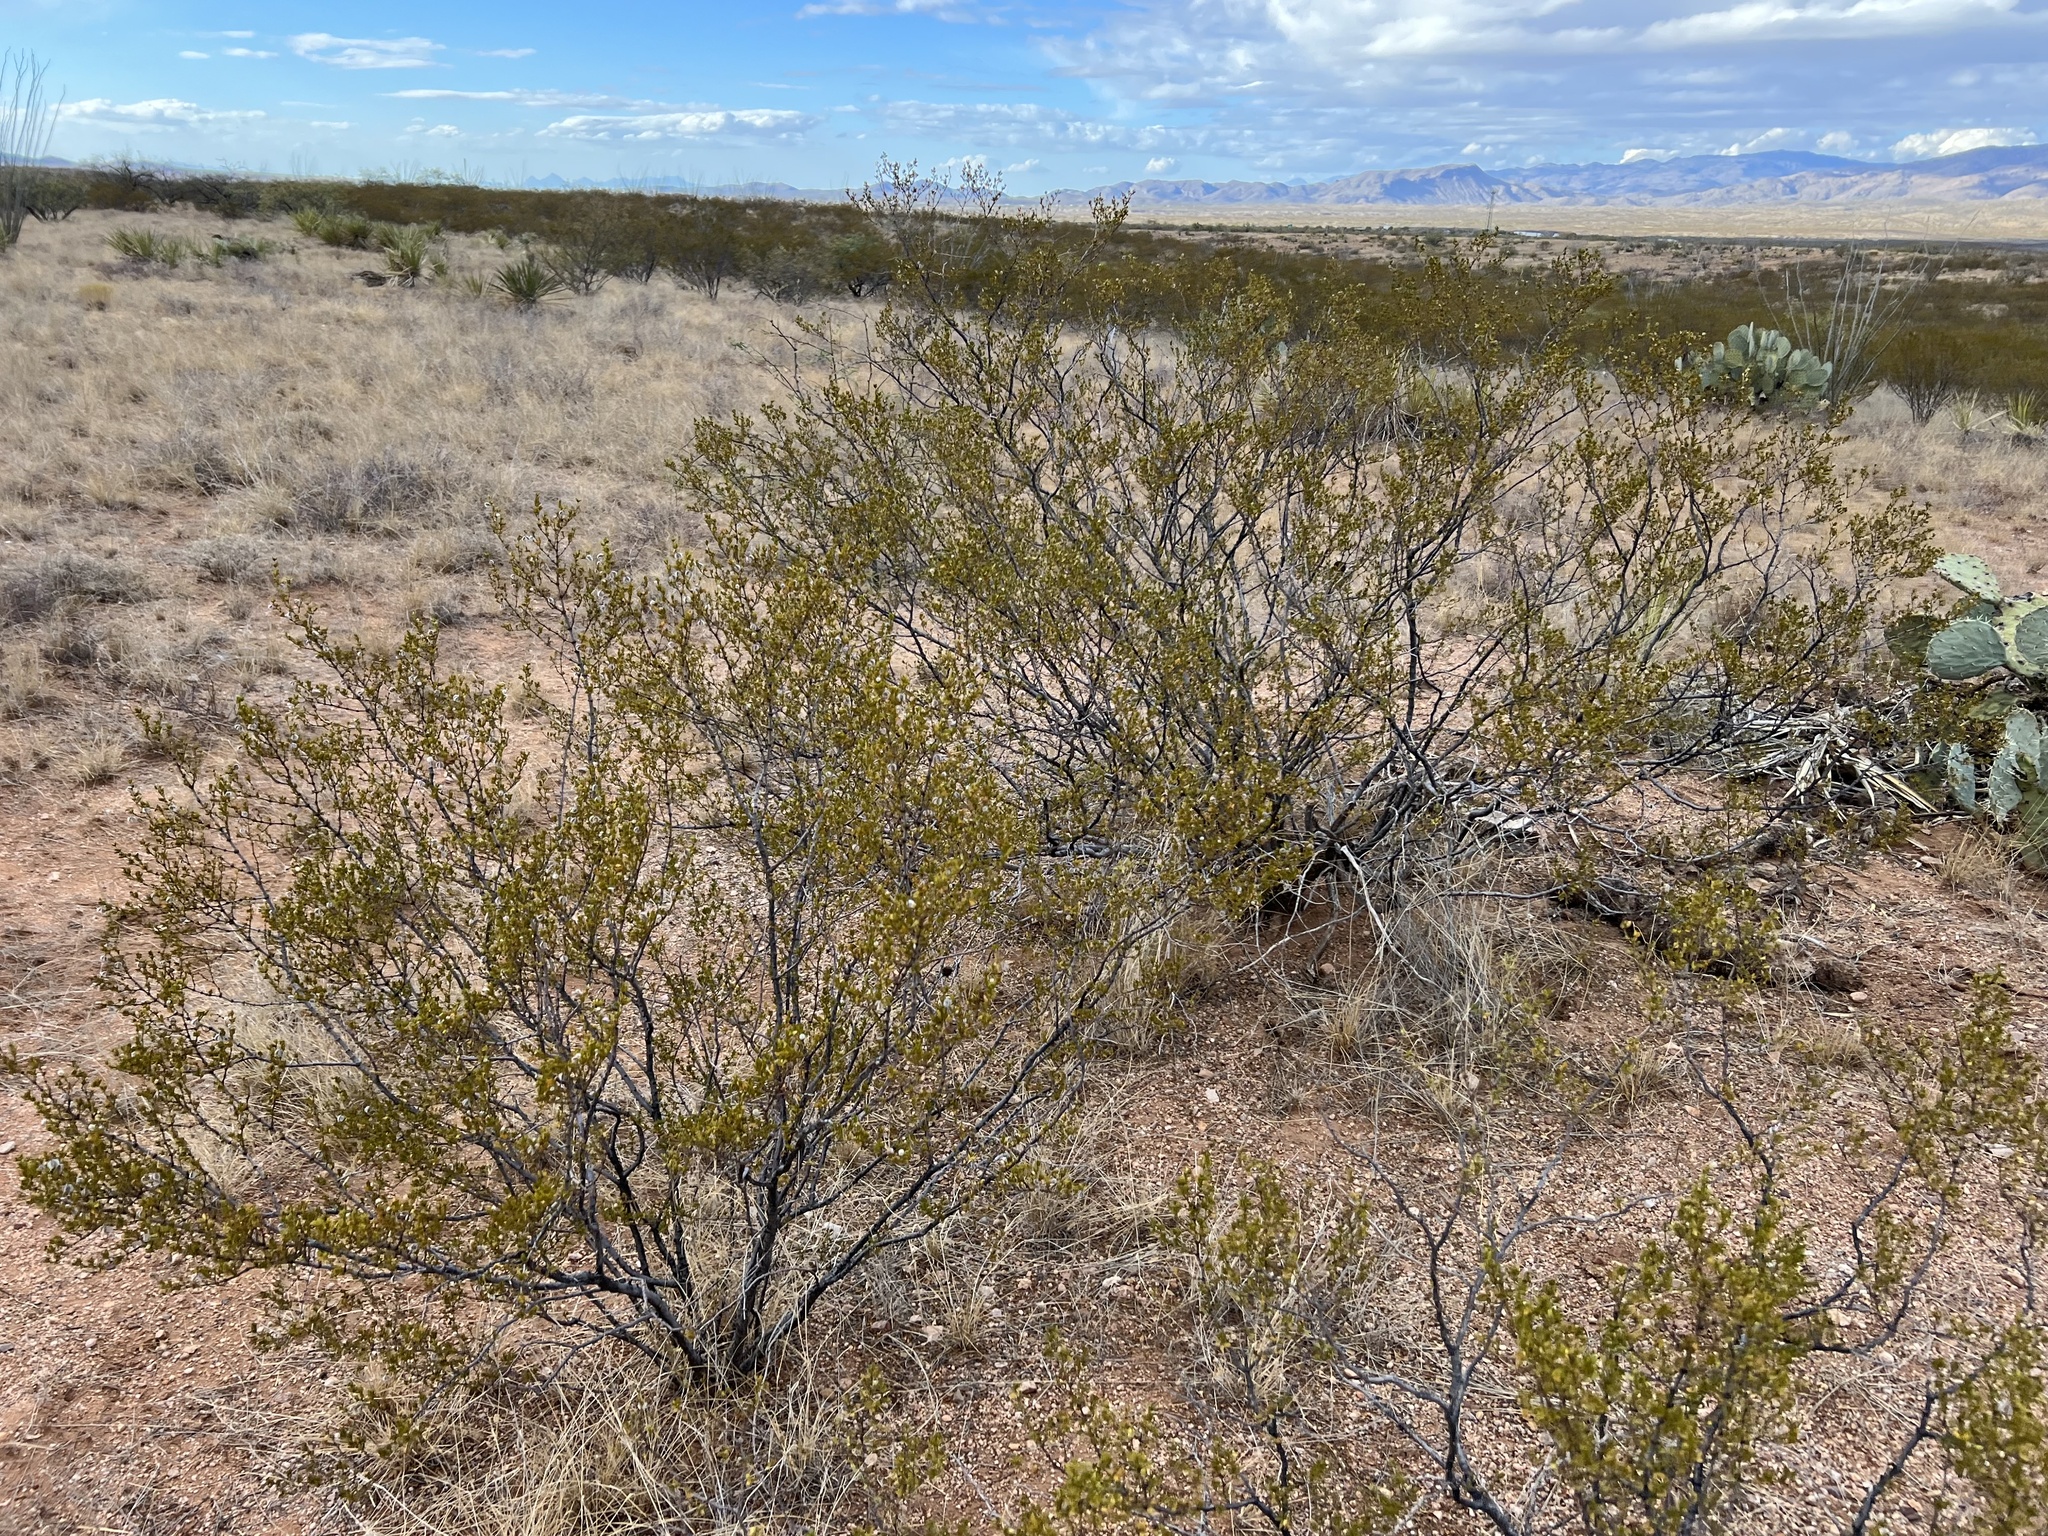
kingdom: Plantae
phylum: Tracheophyta
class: Magnoliopsida
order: Zygophyllales
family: Zygophyllaceae
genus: Larrea
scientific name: Larrea tridentata
